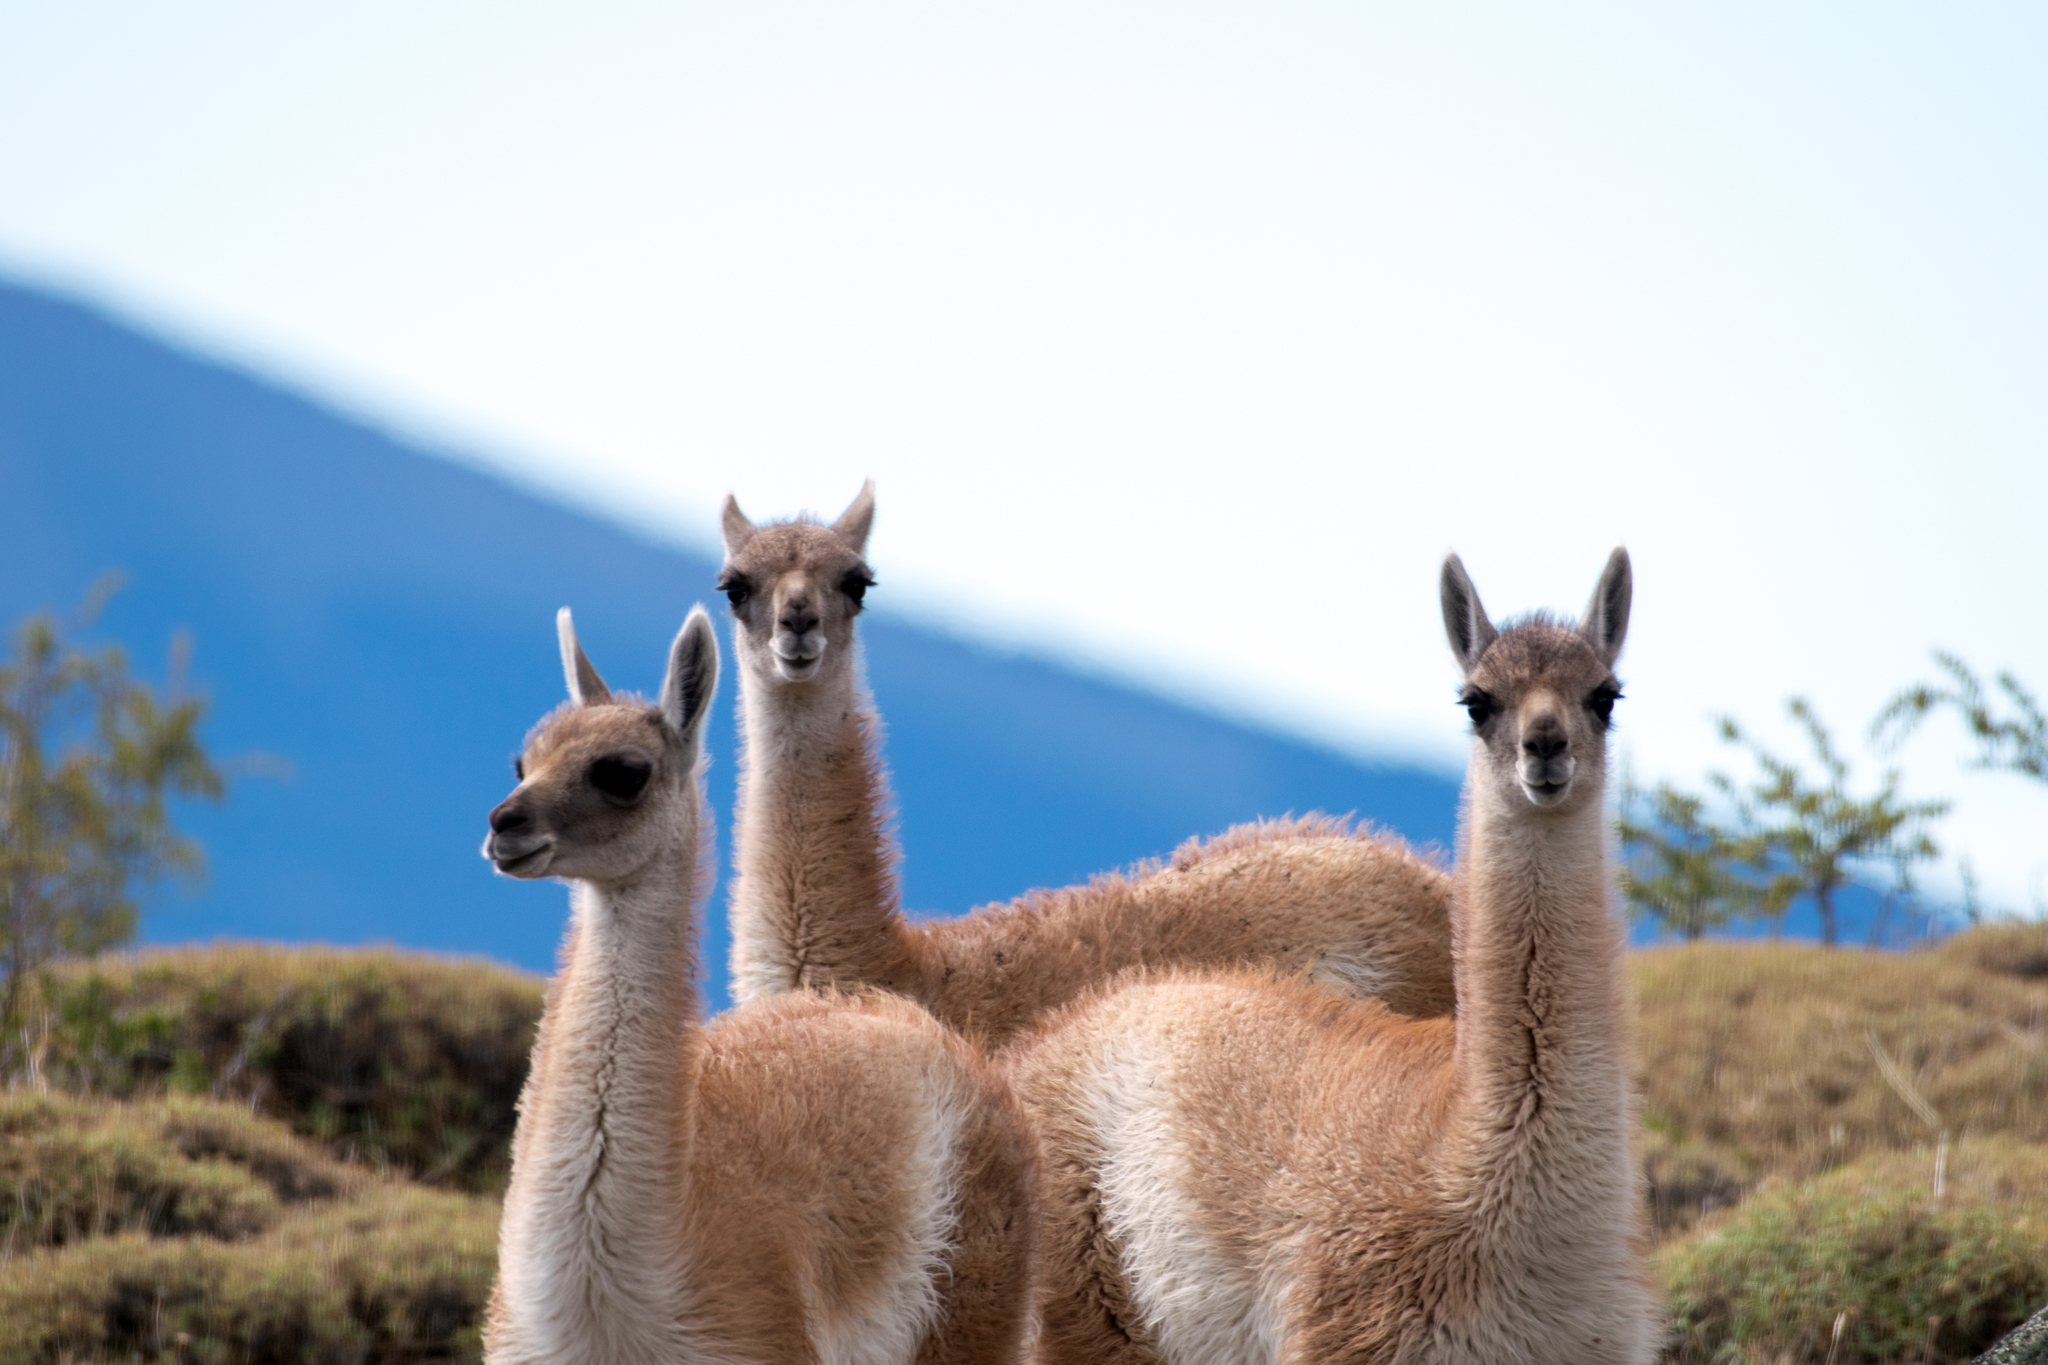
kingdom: Animalia
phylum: Chordata
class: Mammalia
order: Artiodactyla
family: Camelidae
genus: Lama
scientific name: Lama glama
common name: Llama
